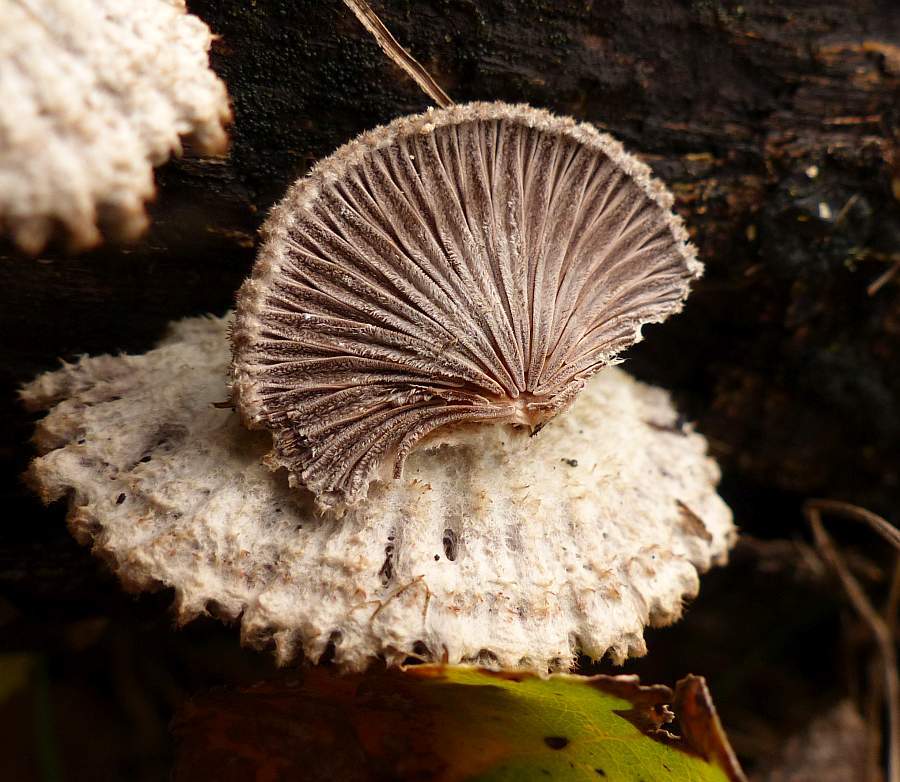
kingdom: Fungi
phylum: Basidiomycota
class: Agaricomycetes
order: Agaricales
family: Schizophyllaceae
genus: Schizophyllum
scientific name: Schizophyllum commune
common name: Common porecrust
